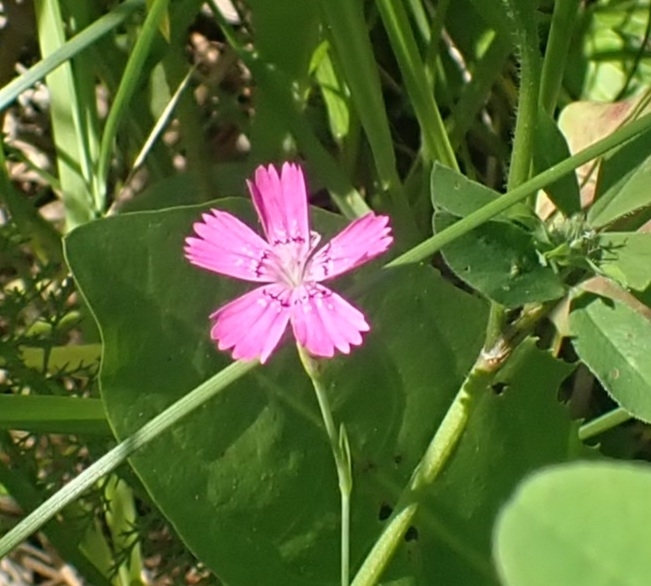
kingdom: Plantae
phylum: Tracheophyta
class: Magnoliopsida
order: Caryophyllales
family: Caryophyllaceae
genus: Dianthus
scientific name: Dianthus deltoides
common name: Maiden pink
